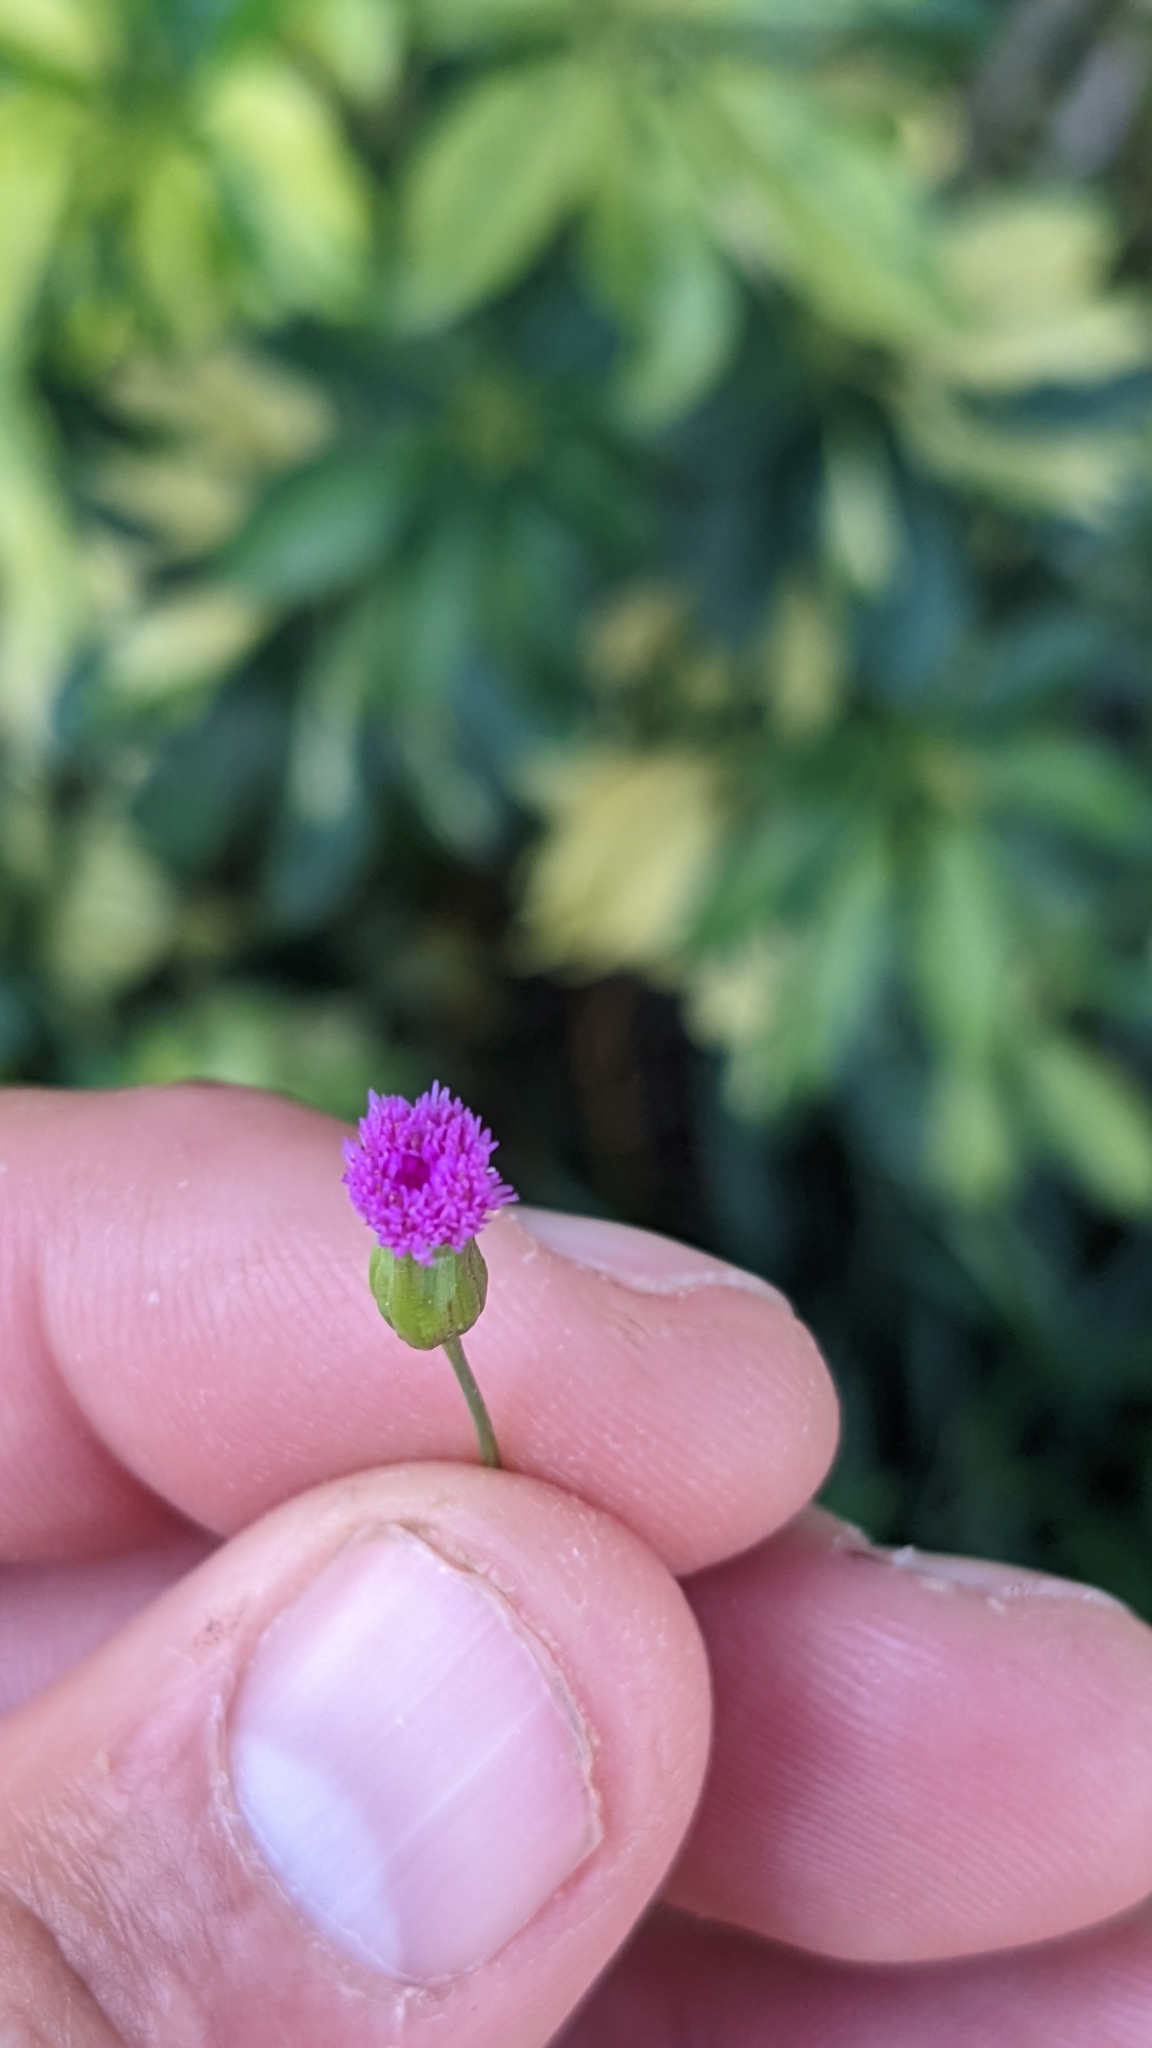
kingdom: Plantae
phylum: Tracheophyta
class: Magnoliopsida
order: Asterales
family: Asteraceae
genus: Emilia
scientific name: Emilia sonchifolia
